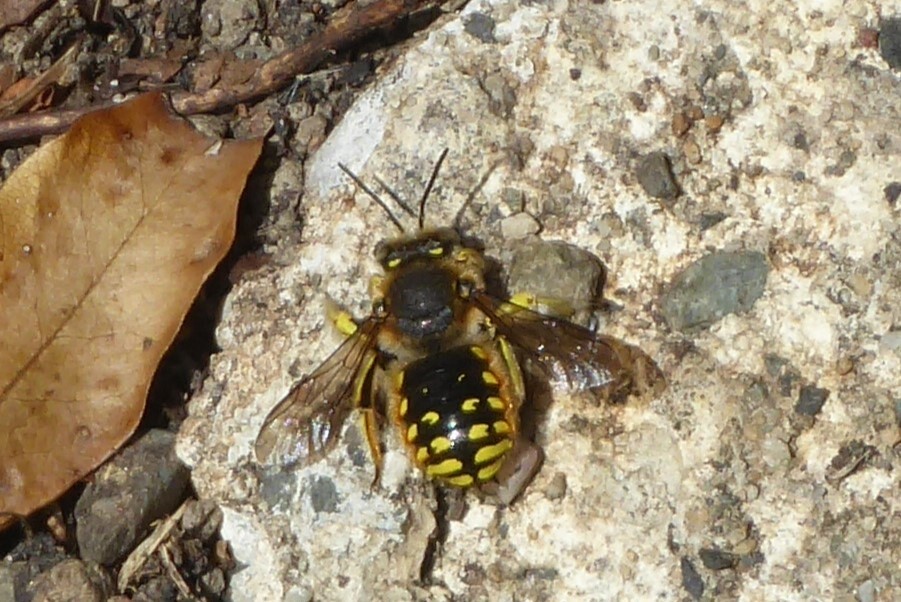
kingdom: Animalia
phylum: Arthropoda
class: Insecta
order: Hymenoptera
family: Megachilidae
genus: Anthidium
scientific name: Anthidium manicatum
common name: Wool carder bee
